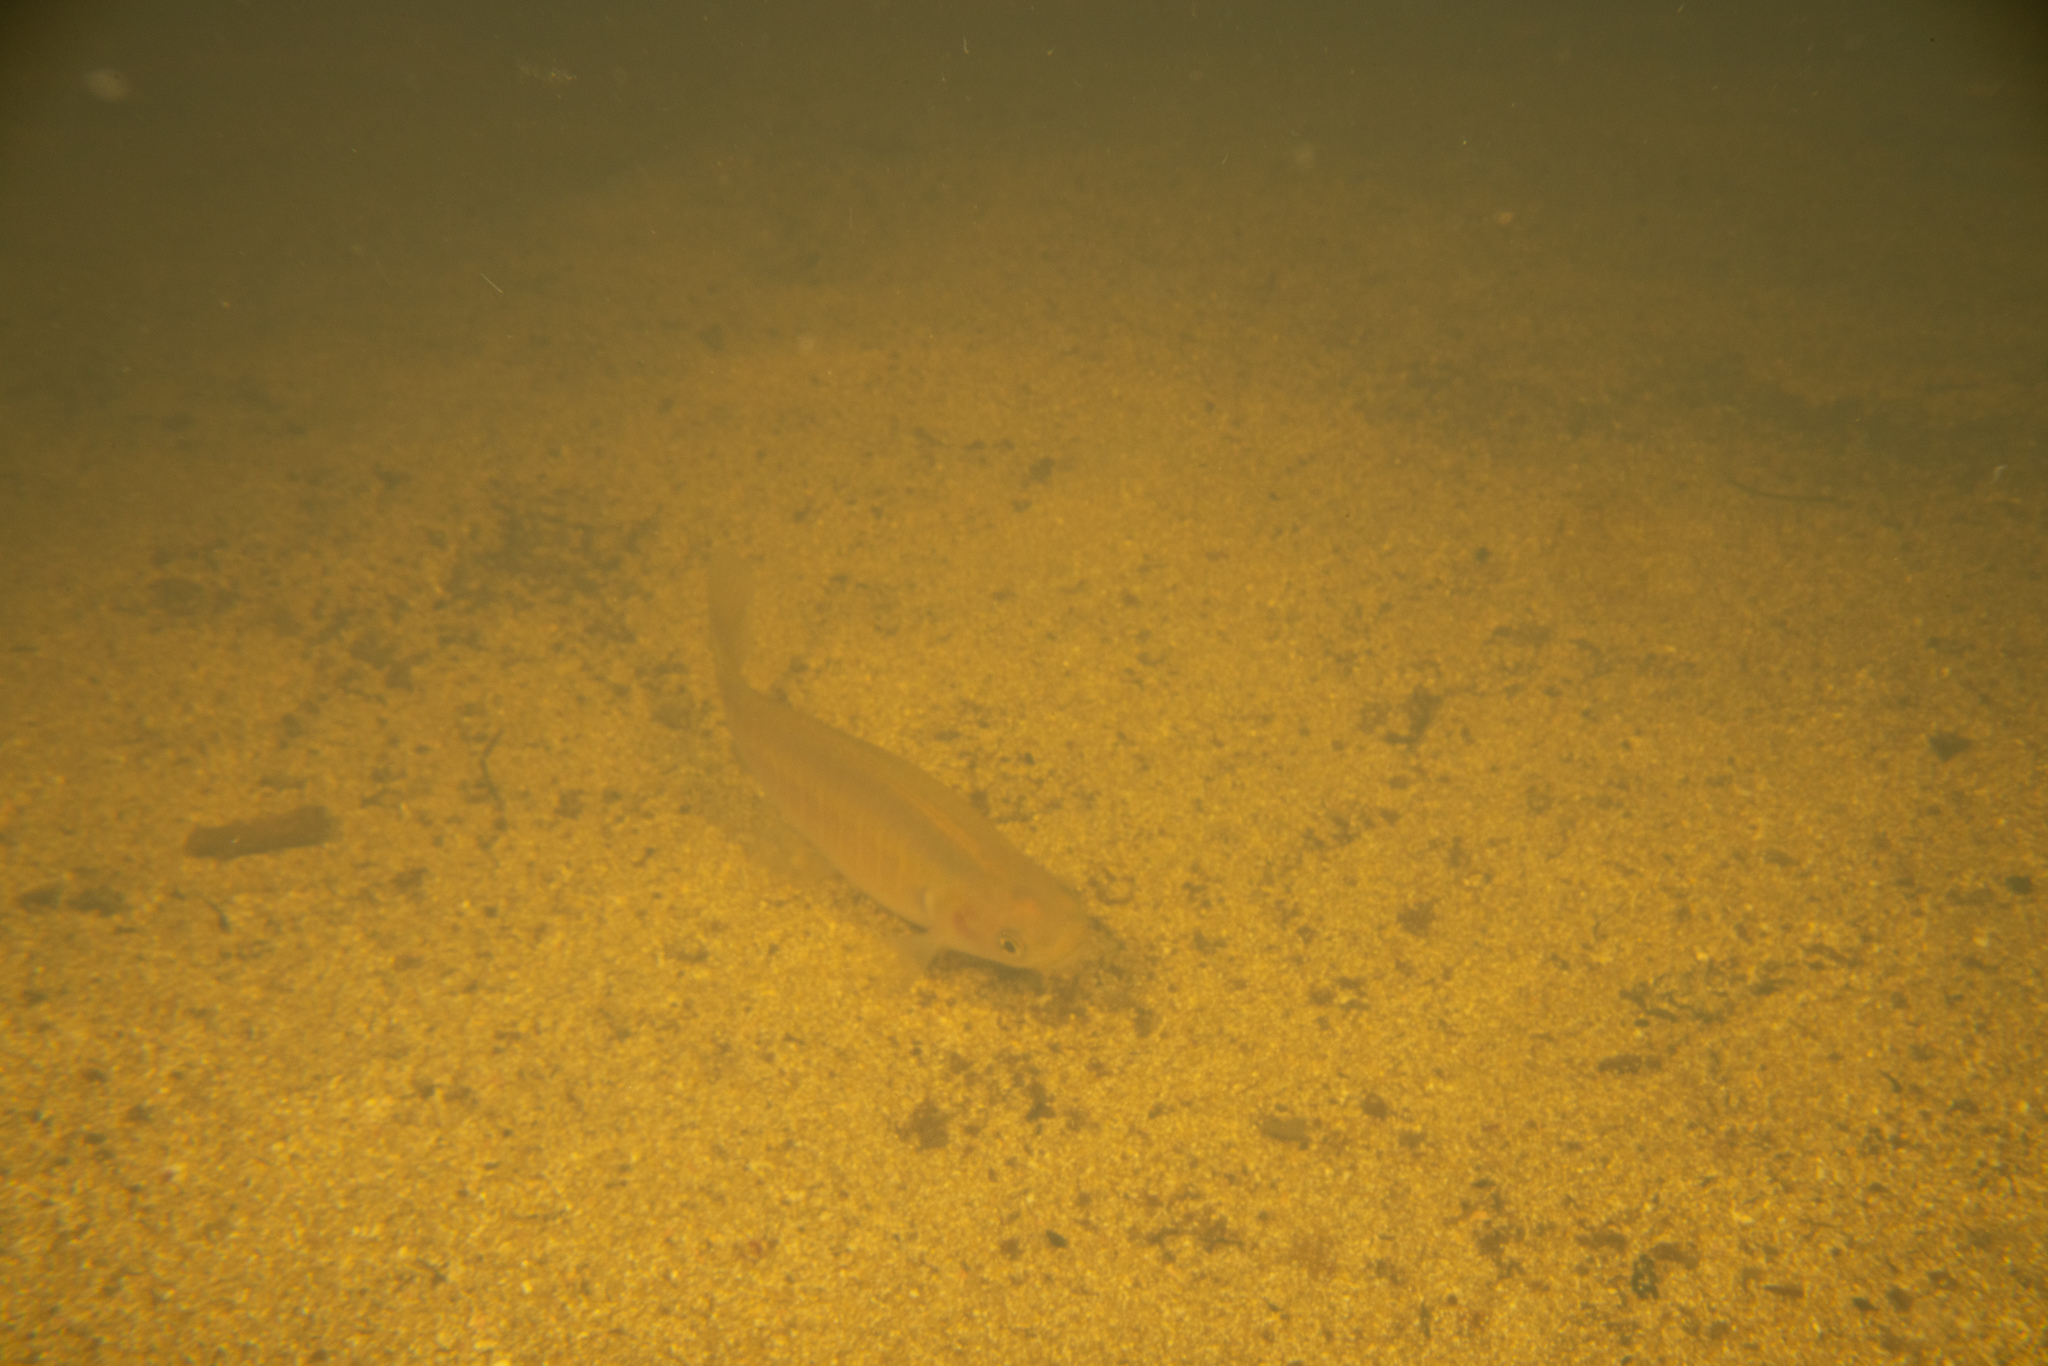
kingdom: Animalia
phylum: Chordata
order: Osmeriformes
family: Galaxiidae
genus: Galaxias
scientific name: Galaxias fasciatus
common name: Banded kokopu
